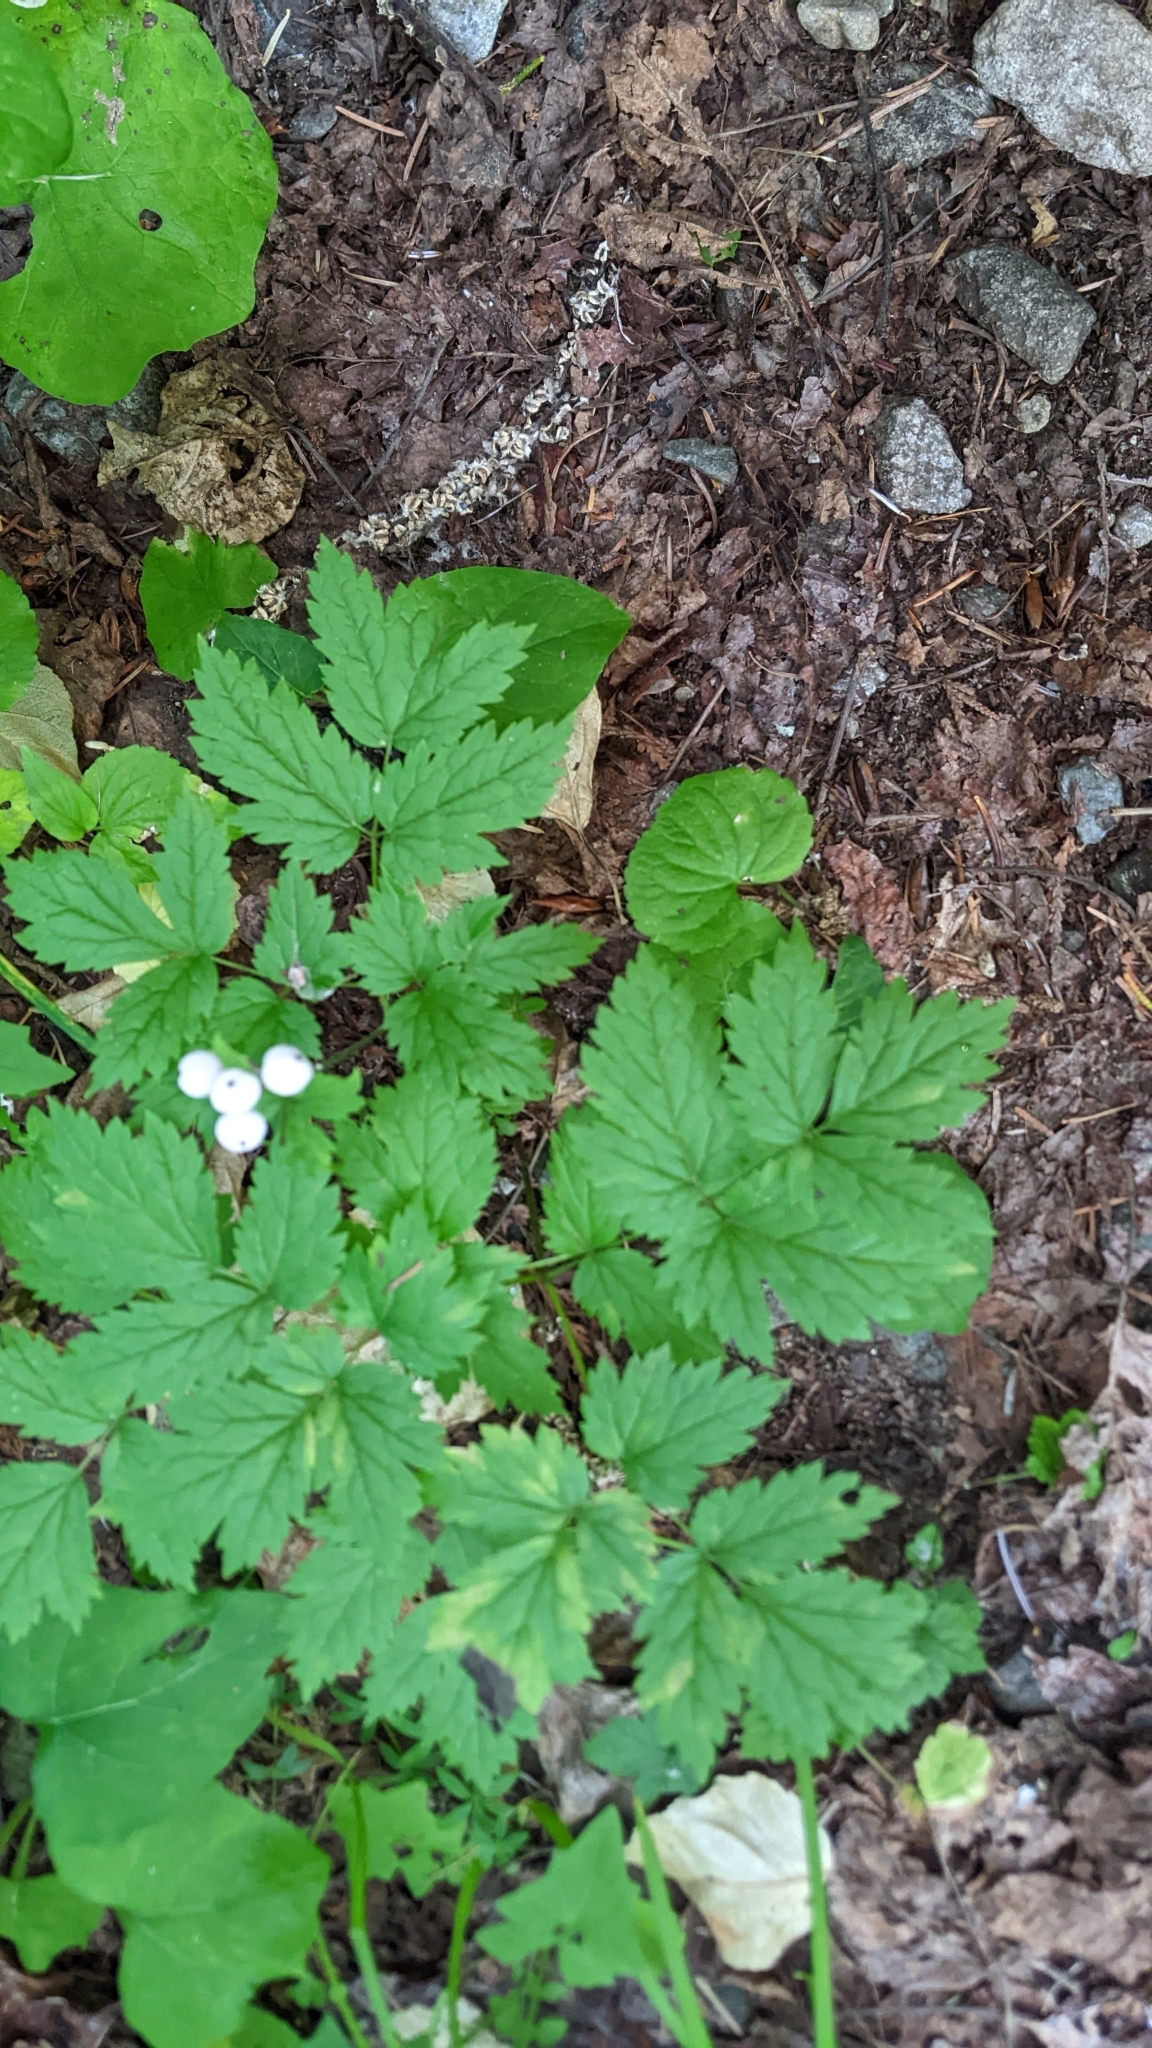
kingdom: Plantae
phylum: Tracheophyta
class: Magnoliopsida
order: Ranunculales
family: Ranunculaceae
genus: Actaea
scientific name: Actaea rubra
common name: Red baneberry
